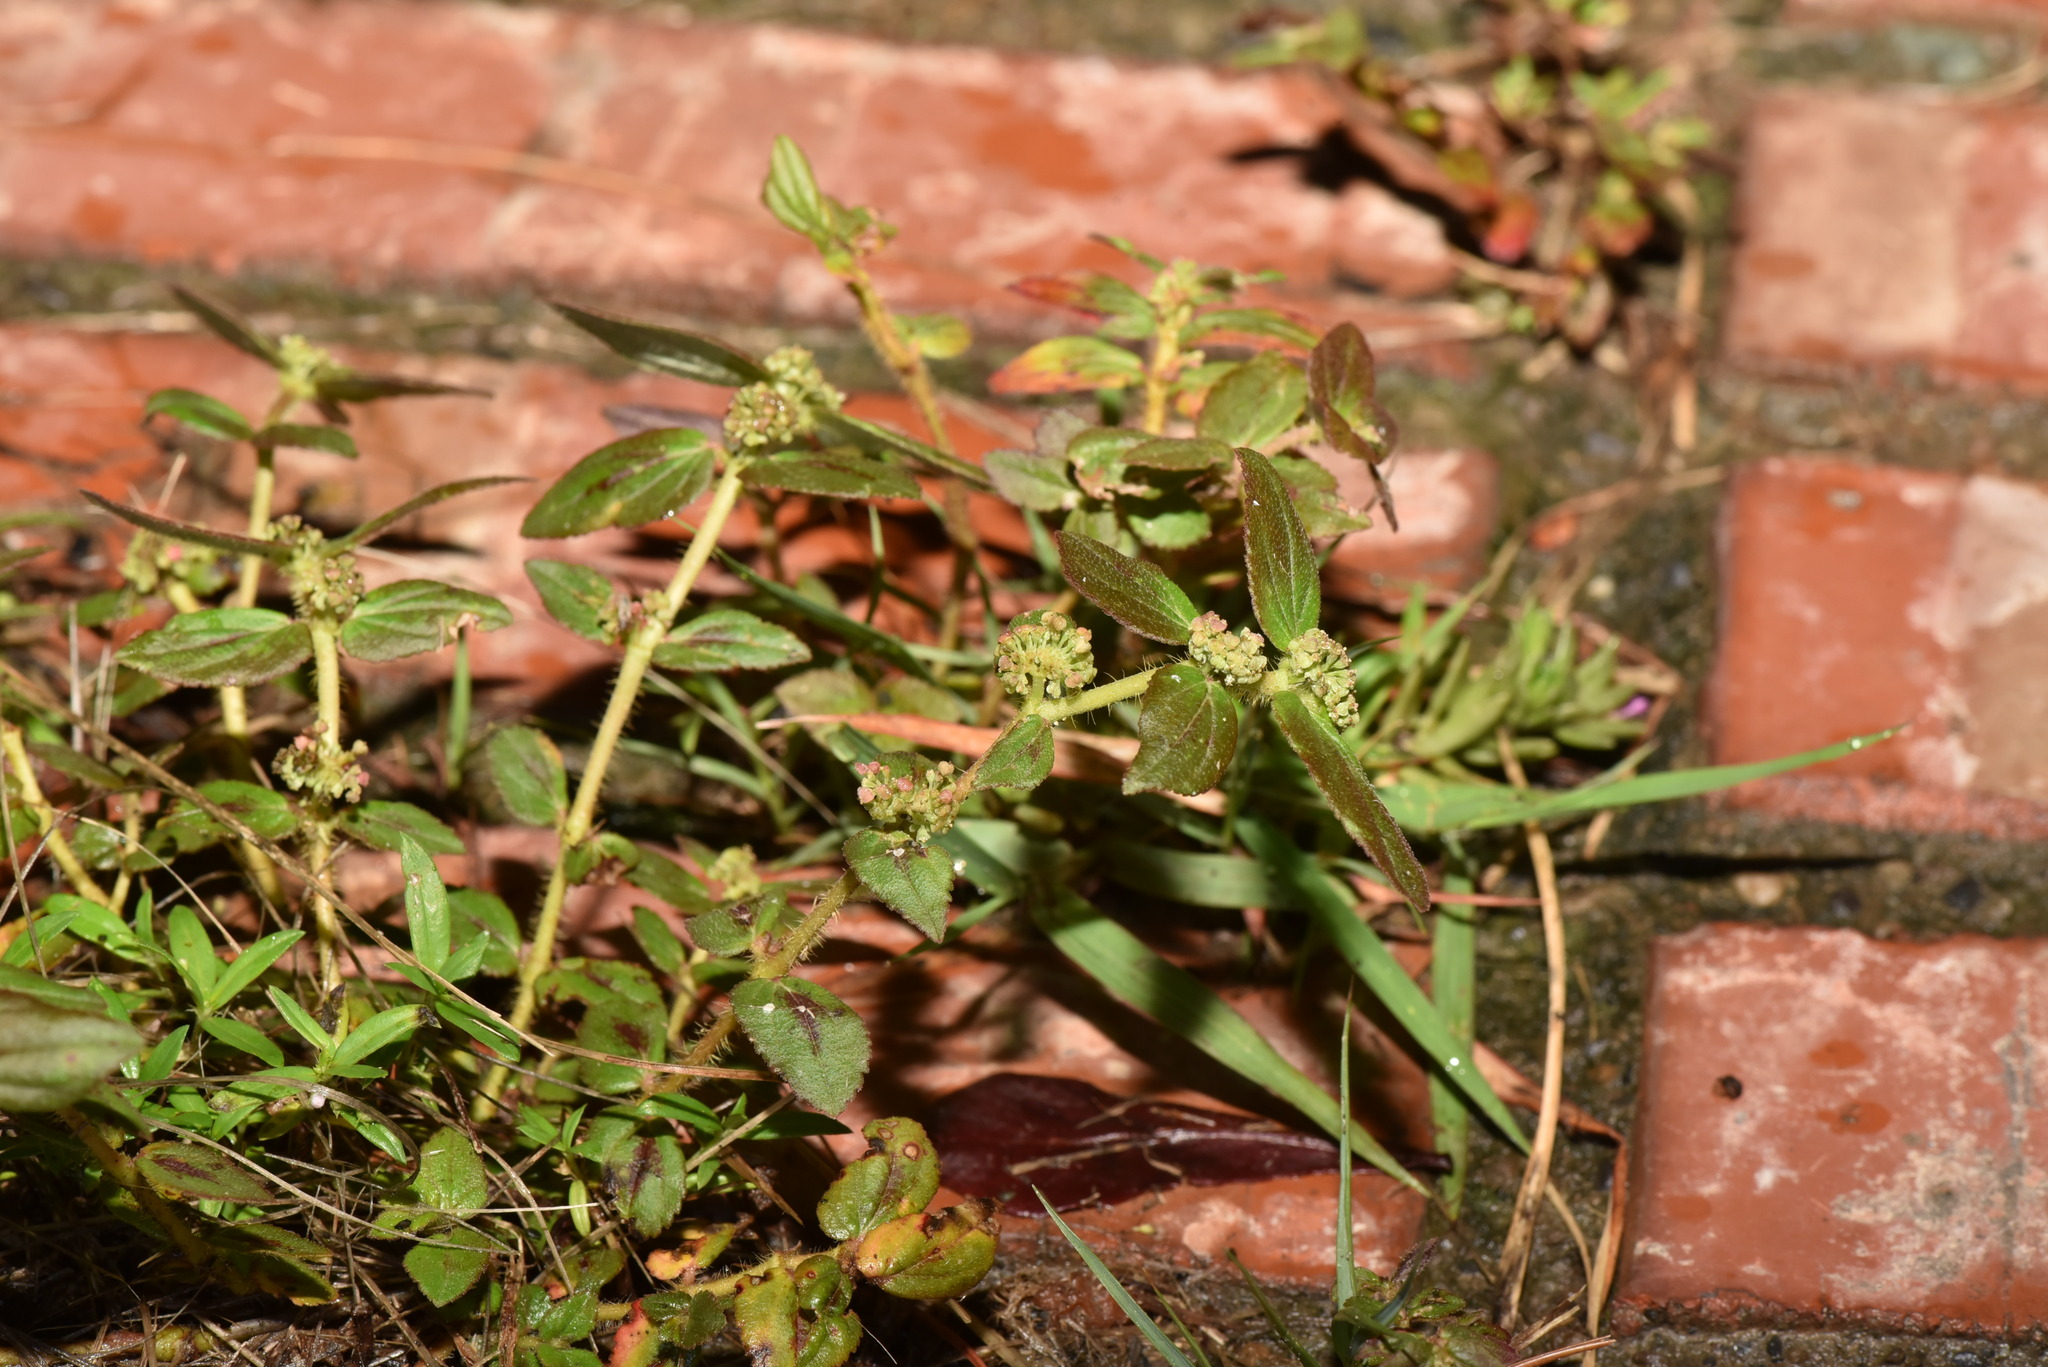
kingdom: Plantae
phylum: Tracheophyta
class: Magnoliopsida
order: Malpighiales
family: Euphorbiaceae
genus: Euphorbia
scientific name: Euphorbia hirta
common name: Pillpod sandmat
